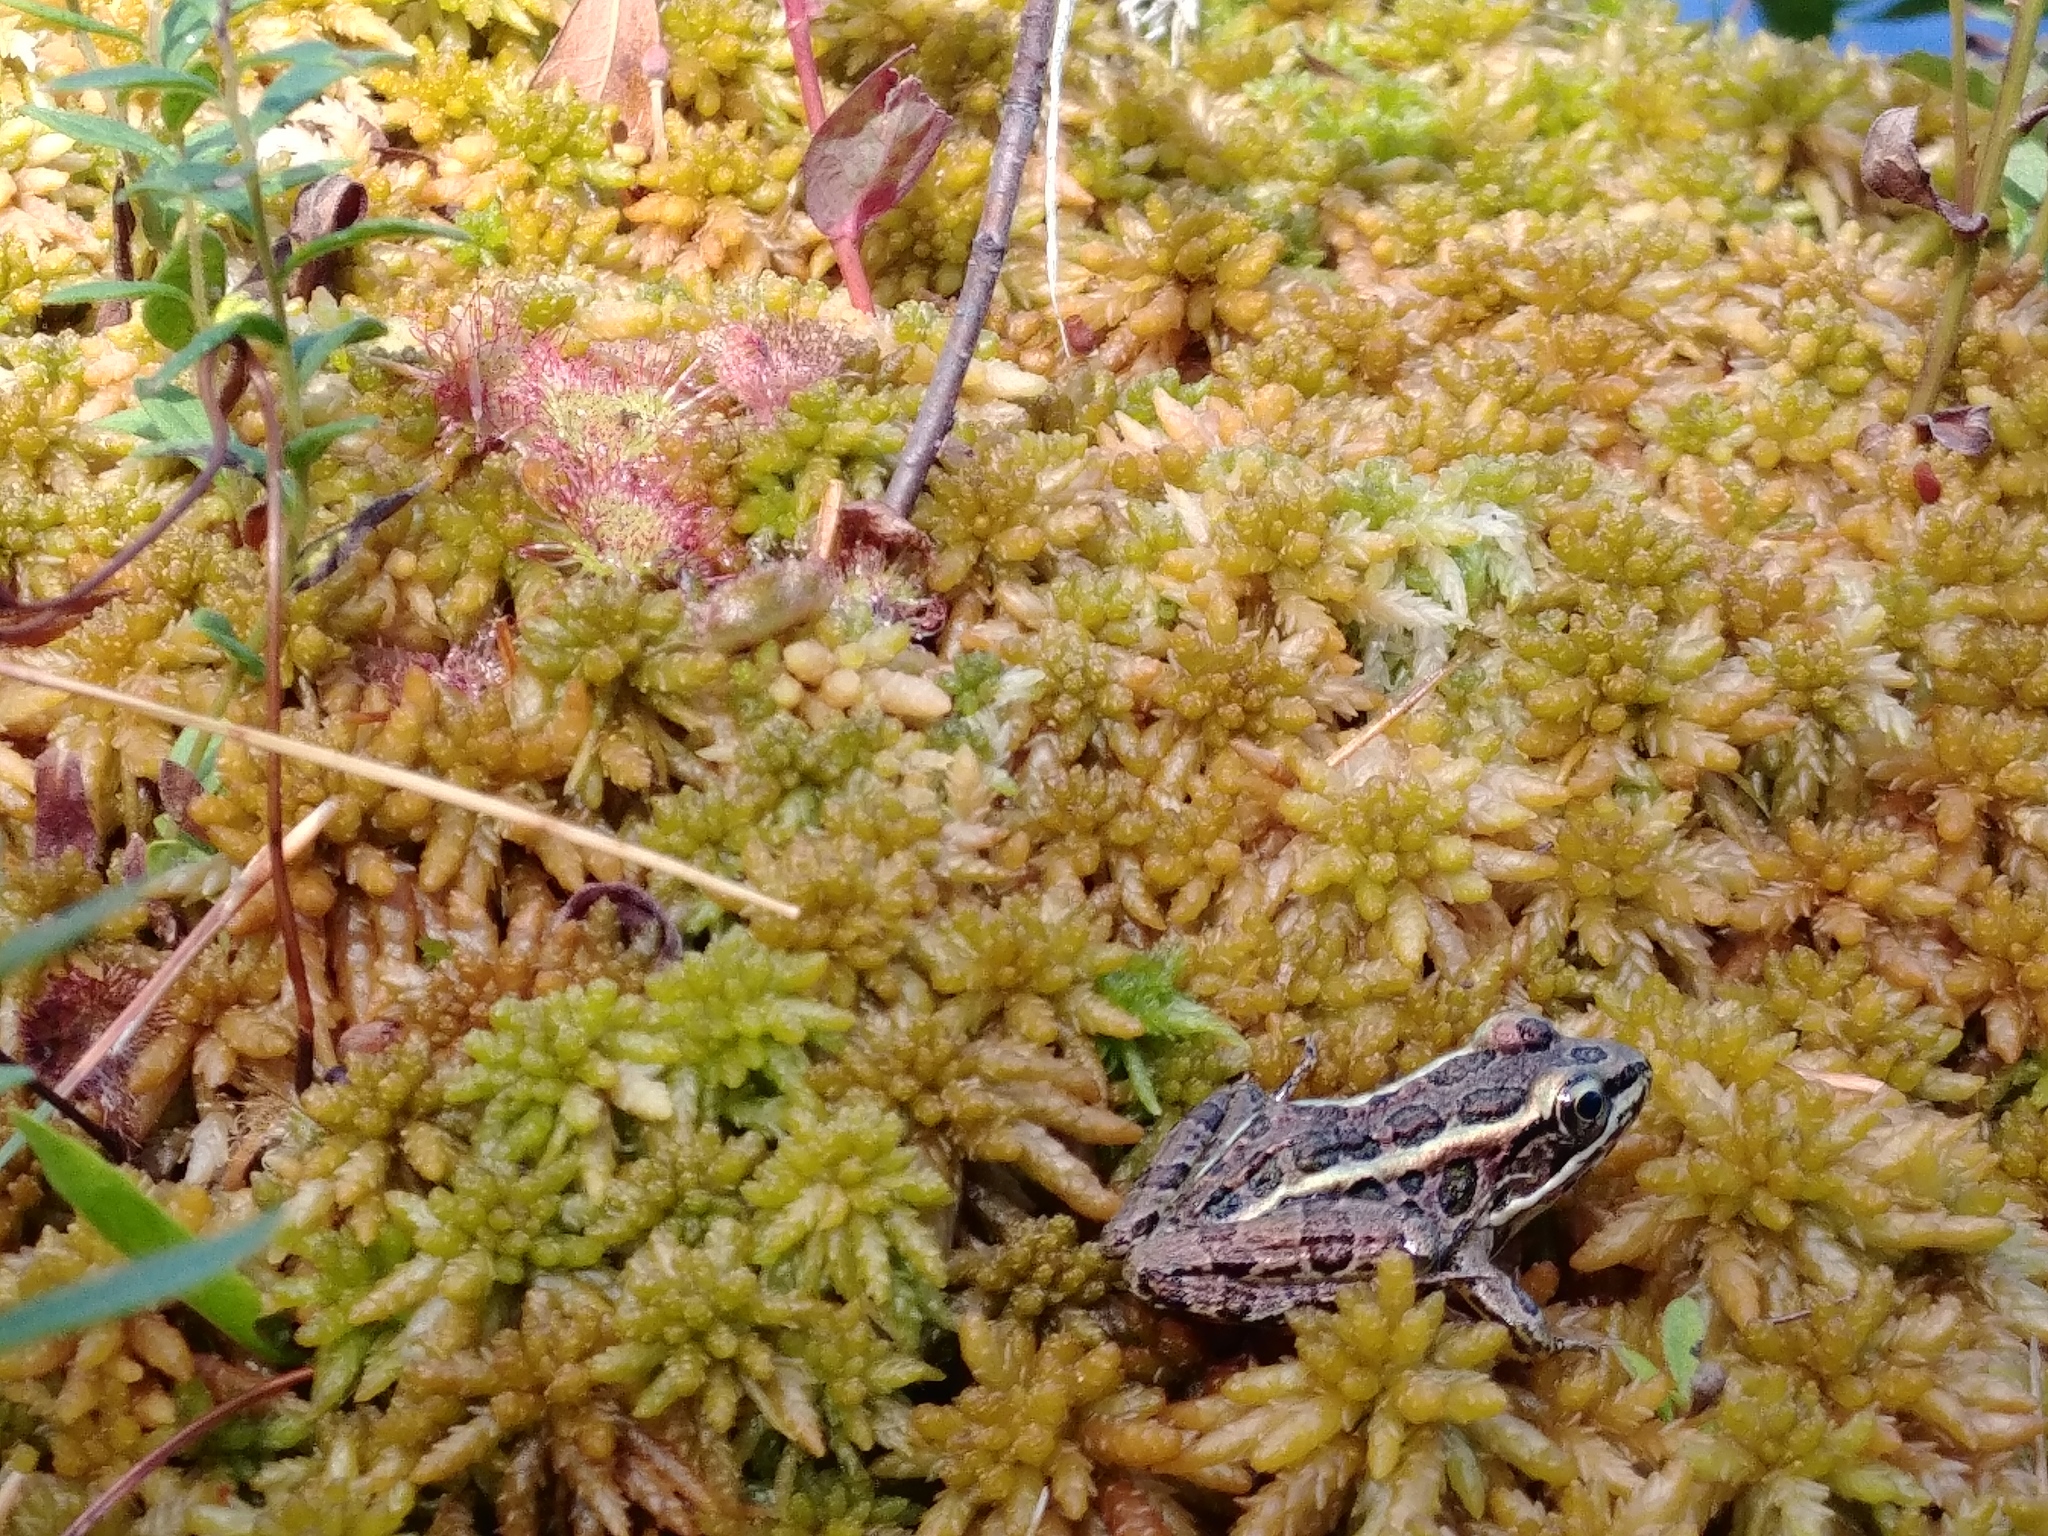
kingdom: Animalia
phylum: Chordata
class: Amphibia
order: Anura
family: Ranidae
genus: Lithobates
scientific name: Lithobates palustris
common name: Pickerel frog
